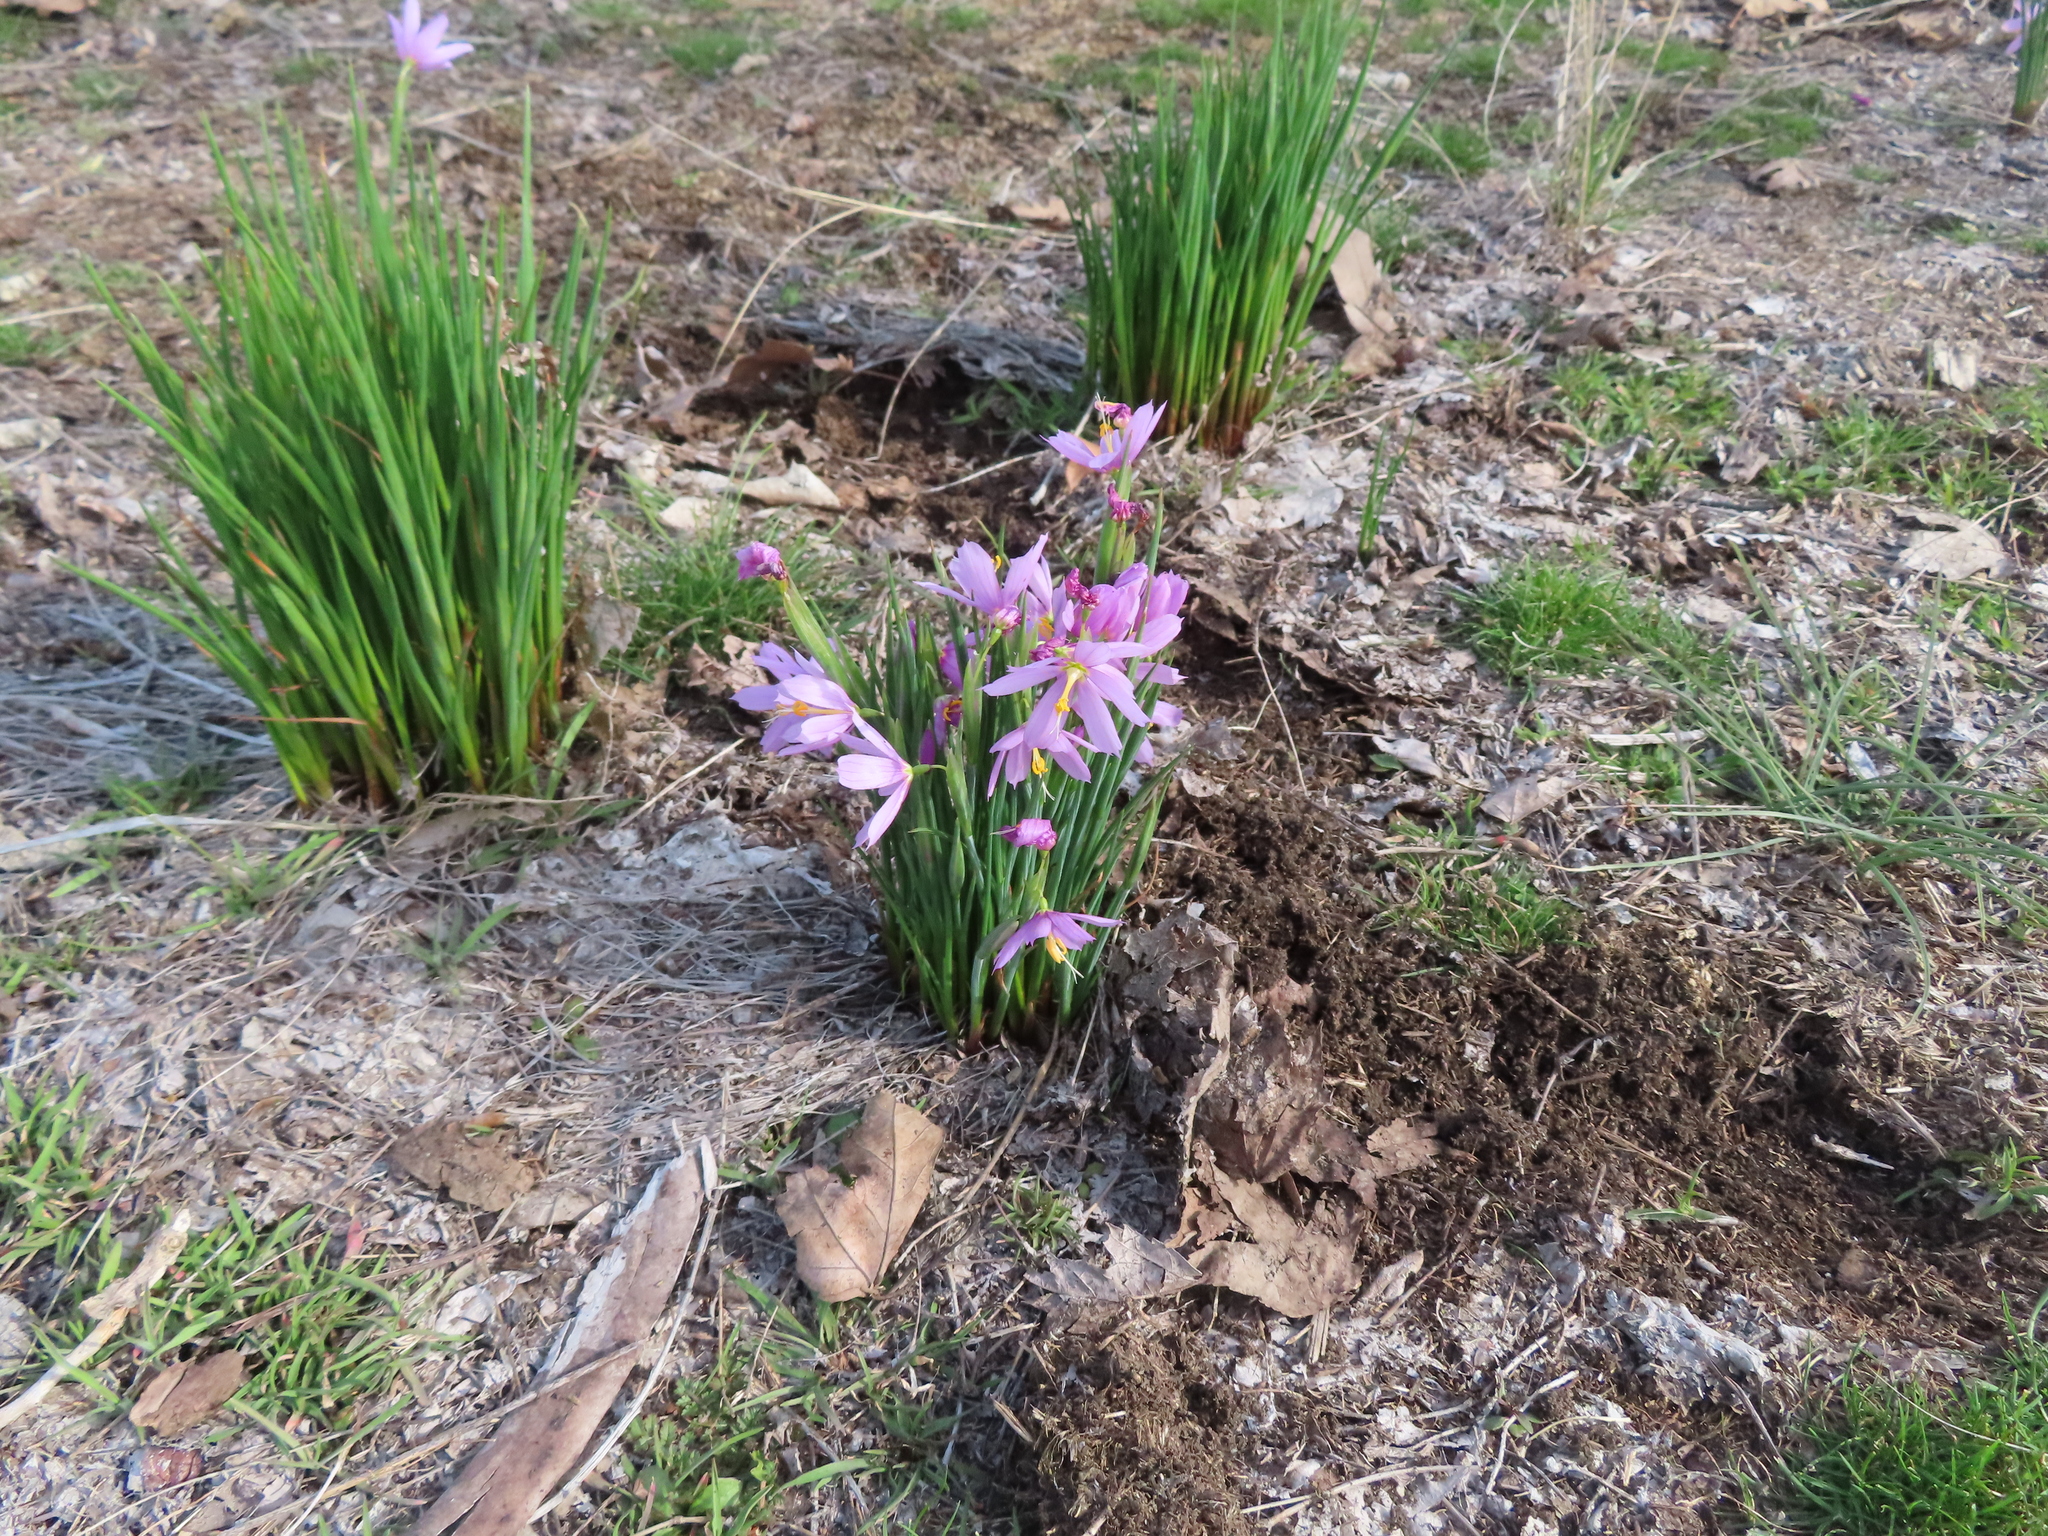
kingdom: Plantae
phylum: Tracheophyta
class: Liliopsida
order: Asparagales
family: Iridaceae
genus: Olsynium
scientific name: Olsynium douglasii
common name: Douglas' grasswidow
